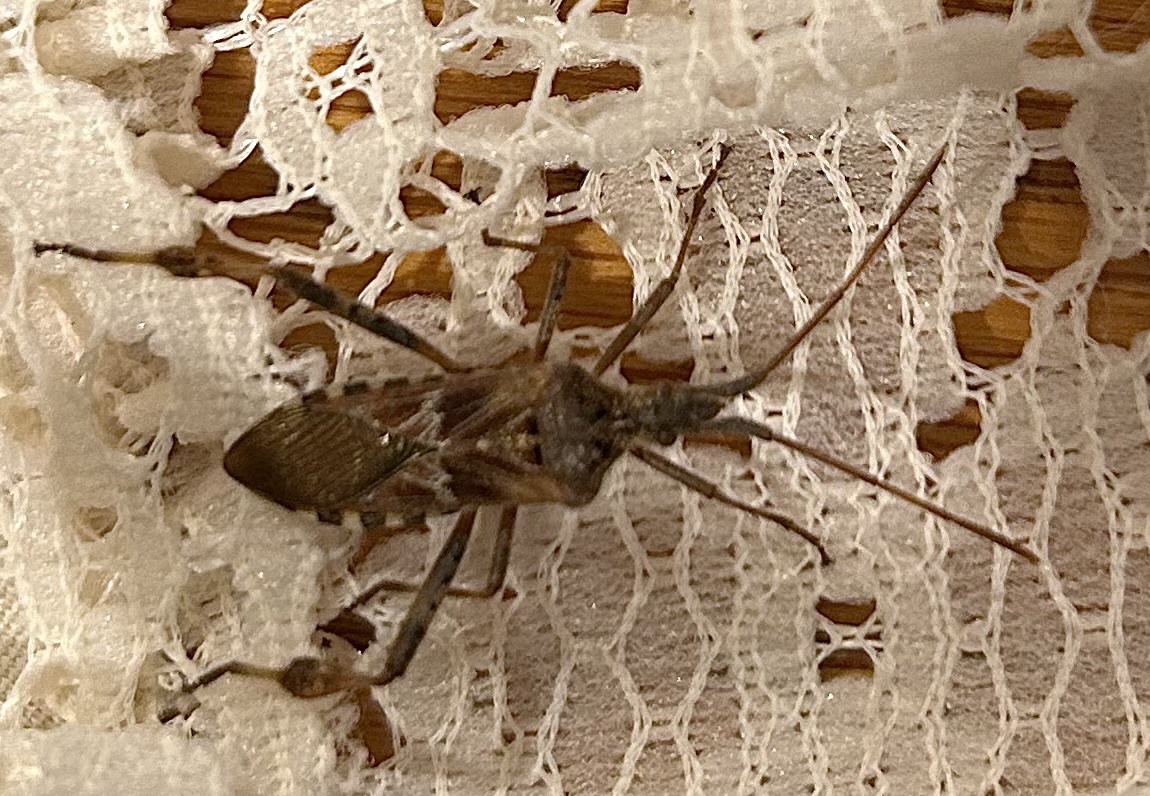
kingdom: Animalia
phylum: Arthropoda
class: Insecta
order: Hemiptera
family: Coreidae
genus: Leptoglossus
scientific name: Leptoglossus occidentalis
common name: Western conifer-seed bug
